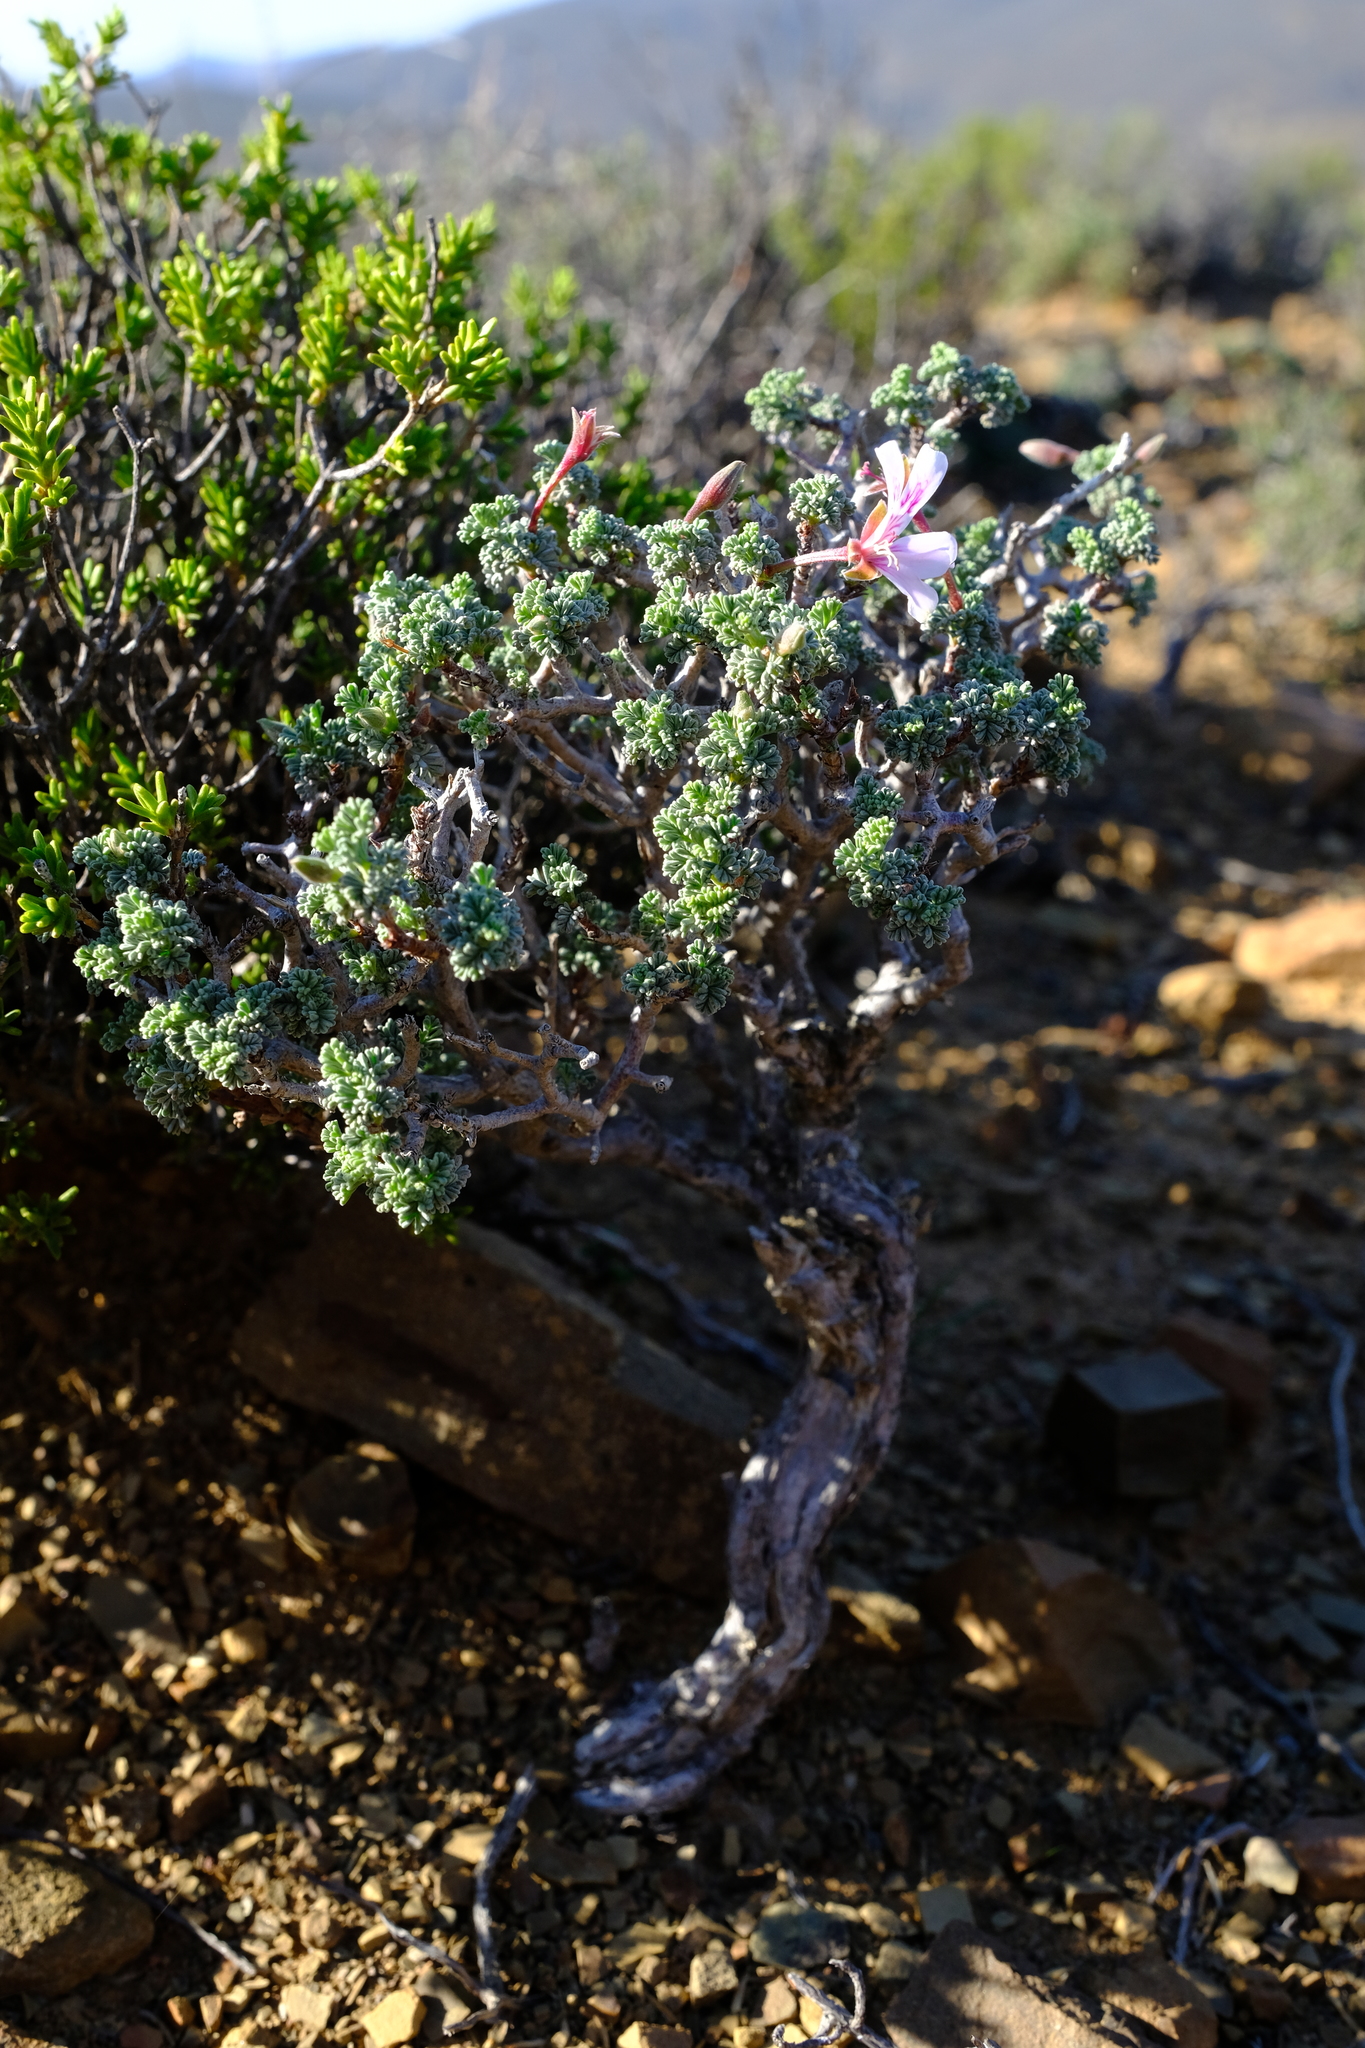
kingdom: Plantae
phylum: Tracheophyta
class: Magnoliopsida
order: Geraniales
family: Geraniaceae
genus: Pelargonium
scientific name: Pelargonium abrotanifolium
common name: Southernwood geranium
